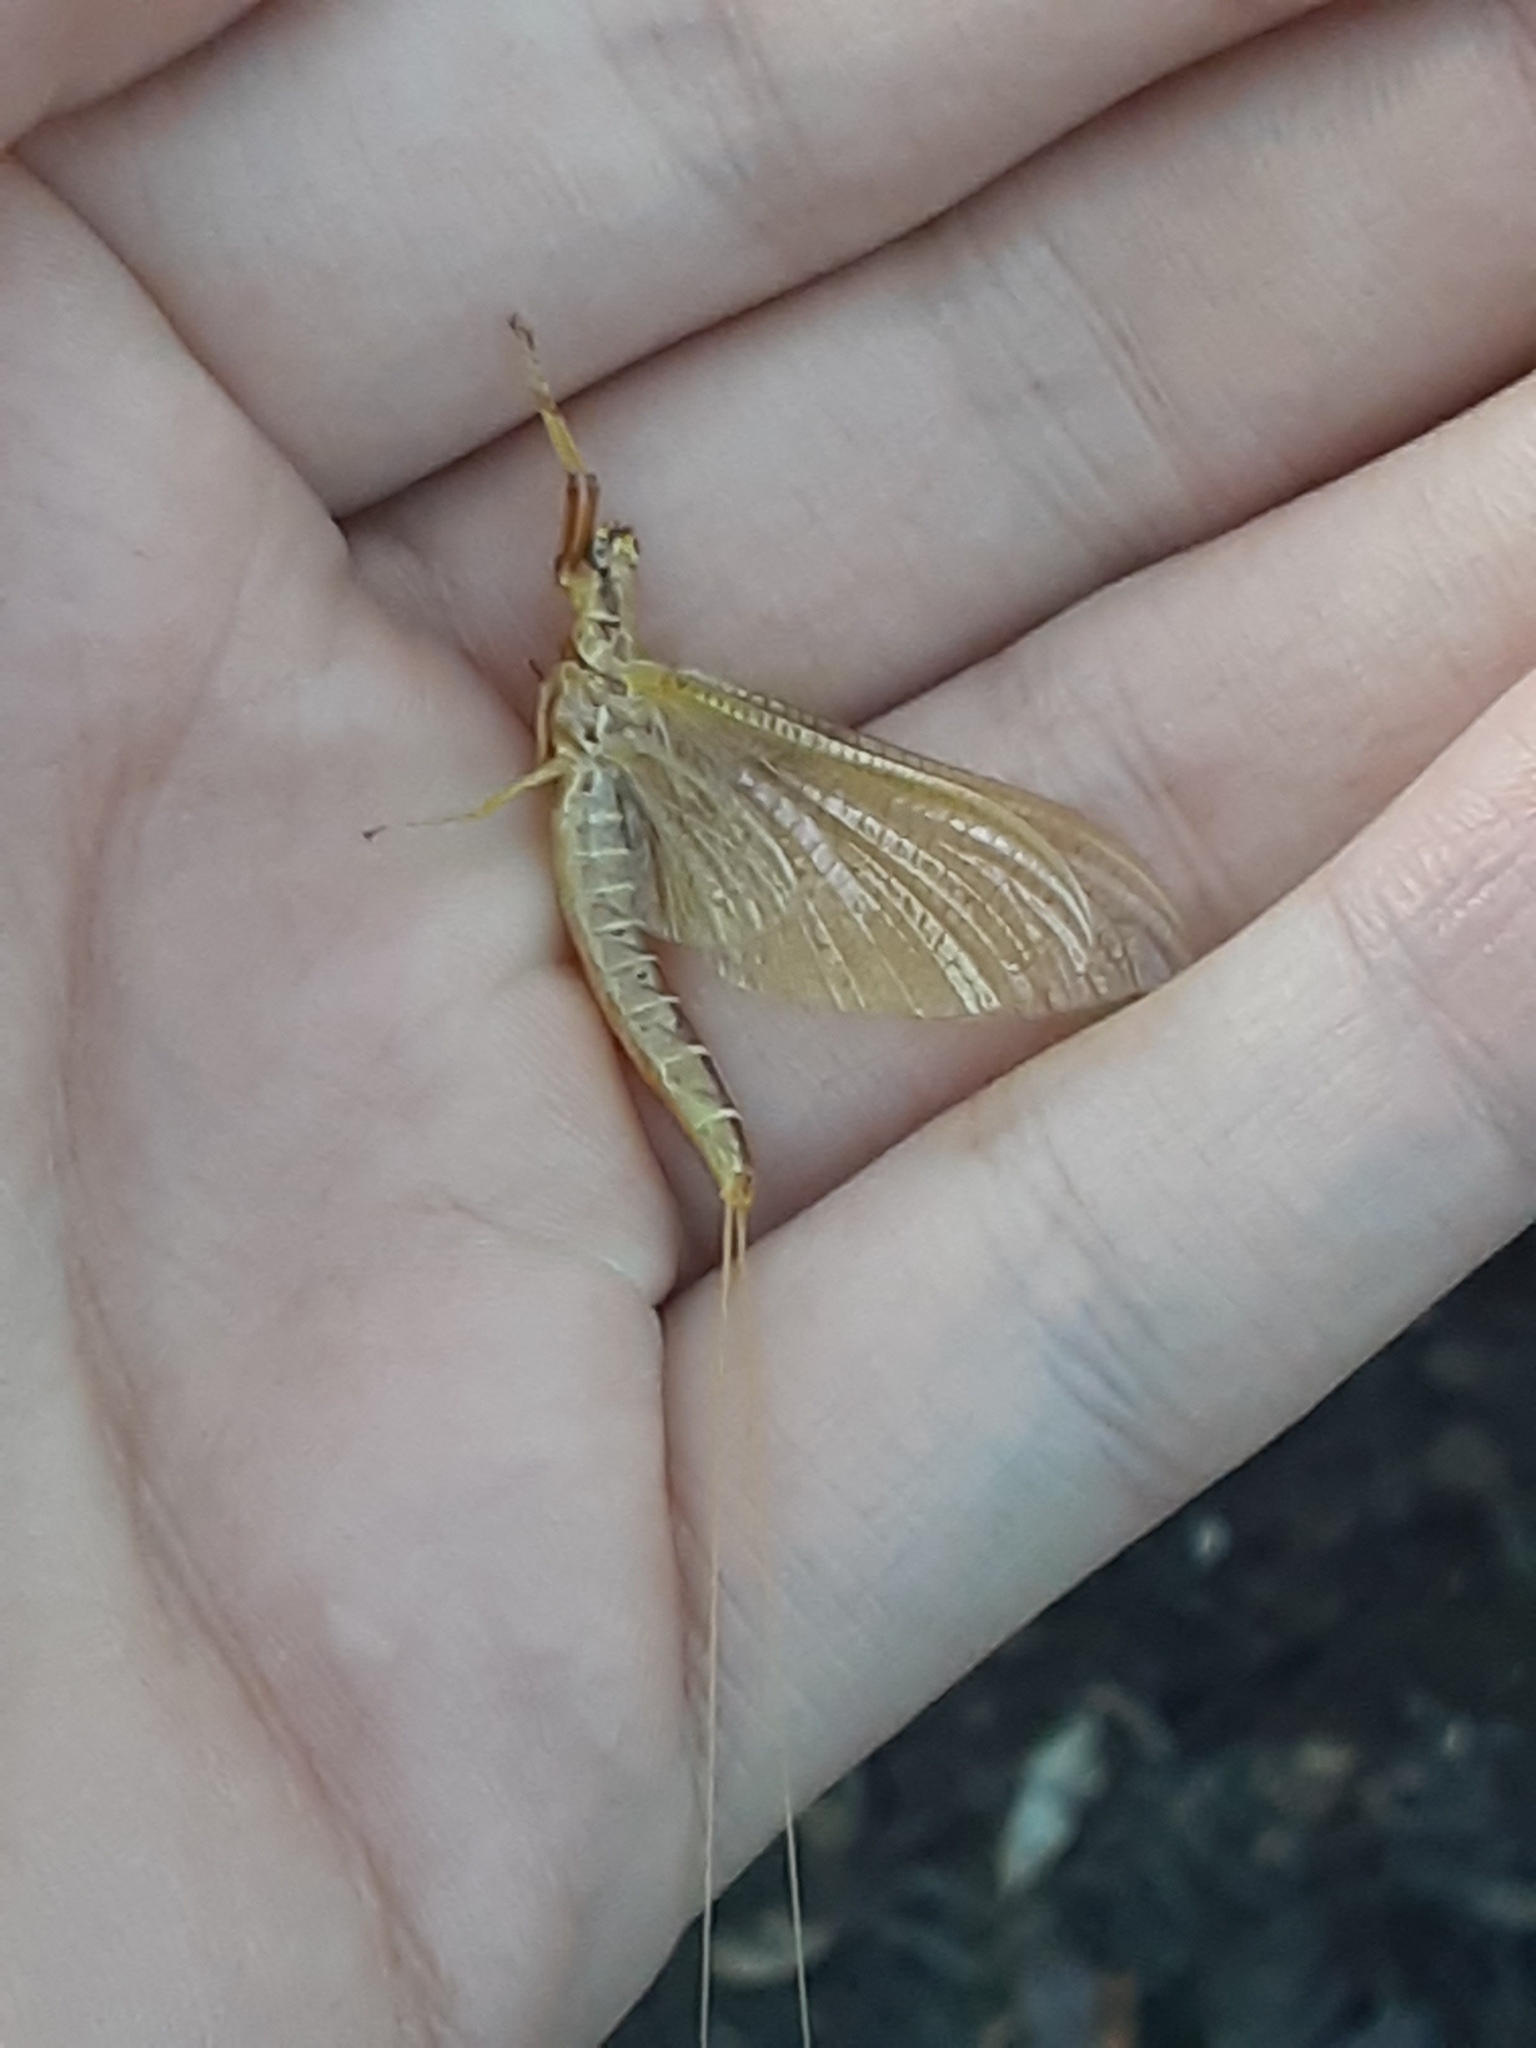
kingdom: Animalia
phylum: Arthropoda
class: Insecta
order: Ephemeroptera
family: Ephemeridae
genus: Hexagenia
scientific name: Hexagenia limbata
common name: Giant mayfly
